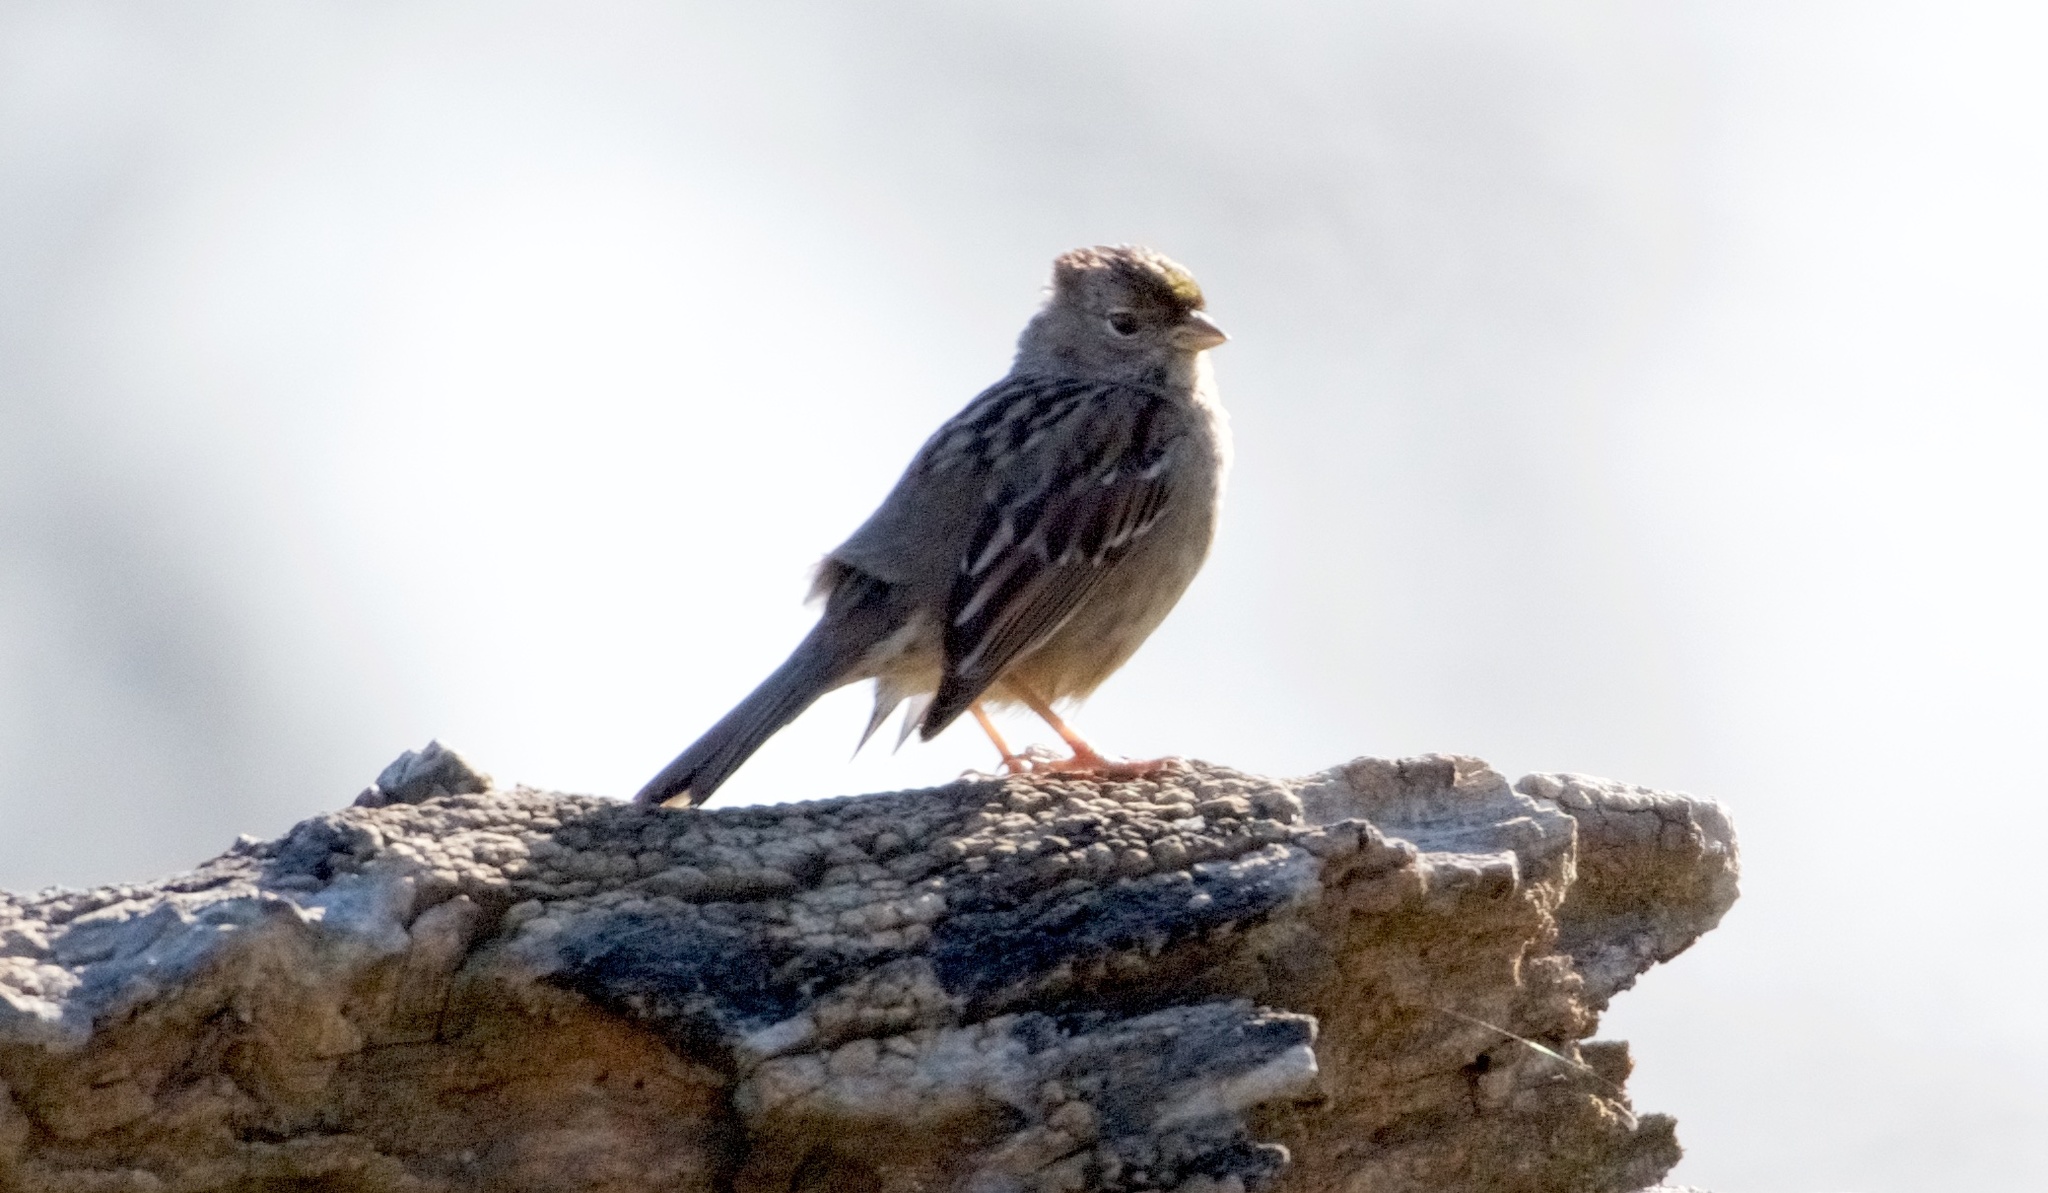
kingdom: Animalia
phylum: Chordata
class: Aves
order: Passeriformes
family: Passerellidae
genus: Zonotrichia
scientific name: Zonotrichia atricapilla
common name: Golden-crowned sparrow
